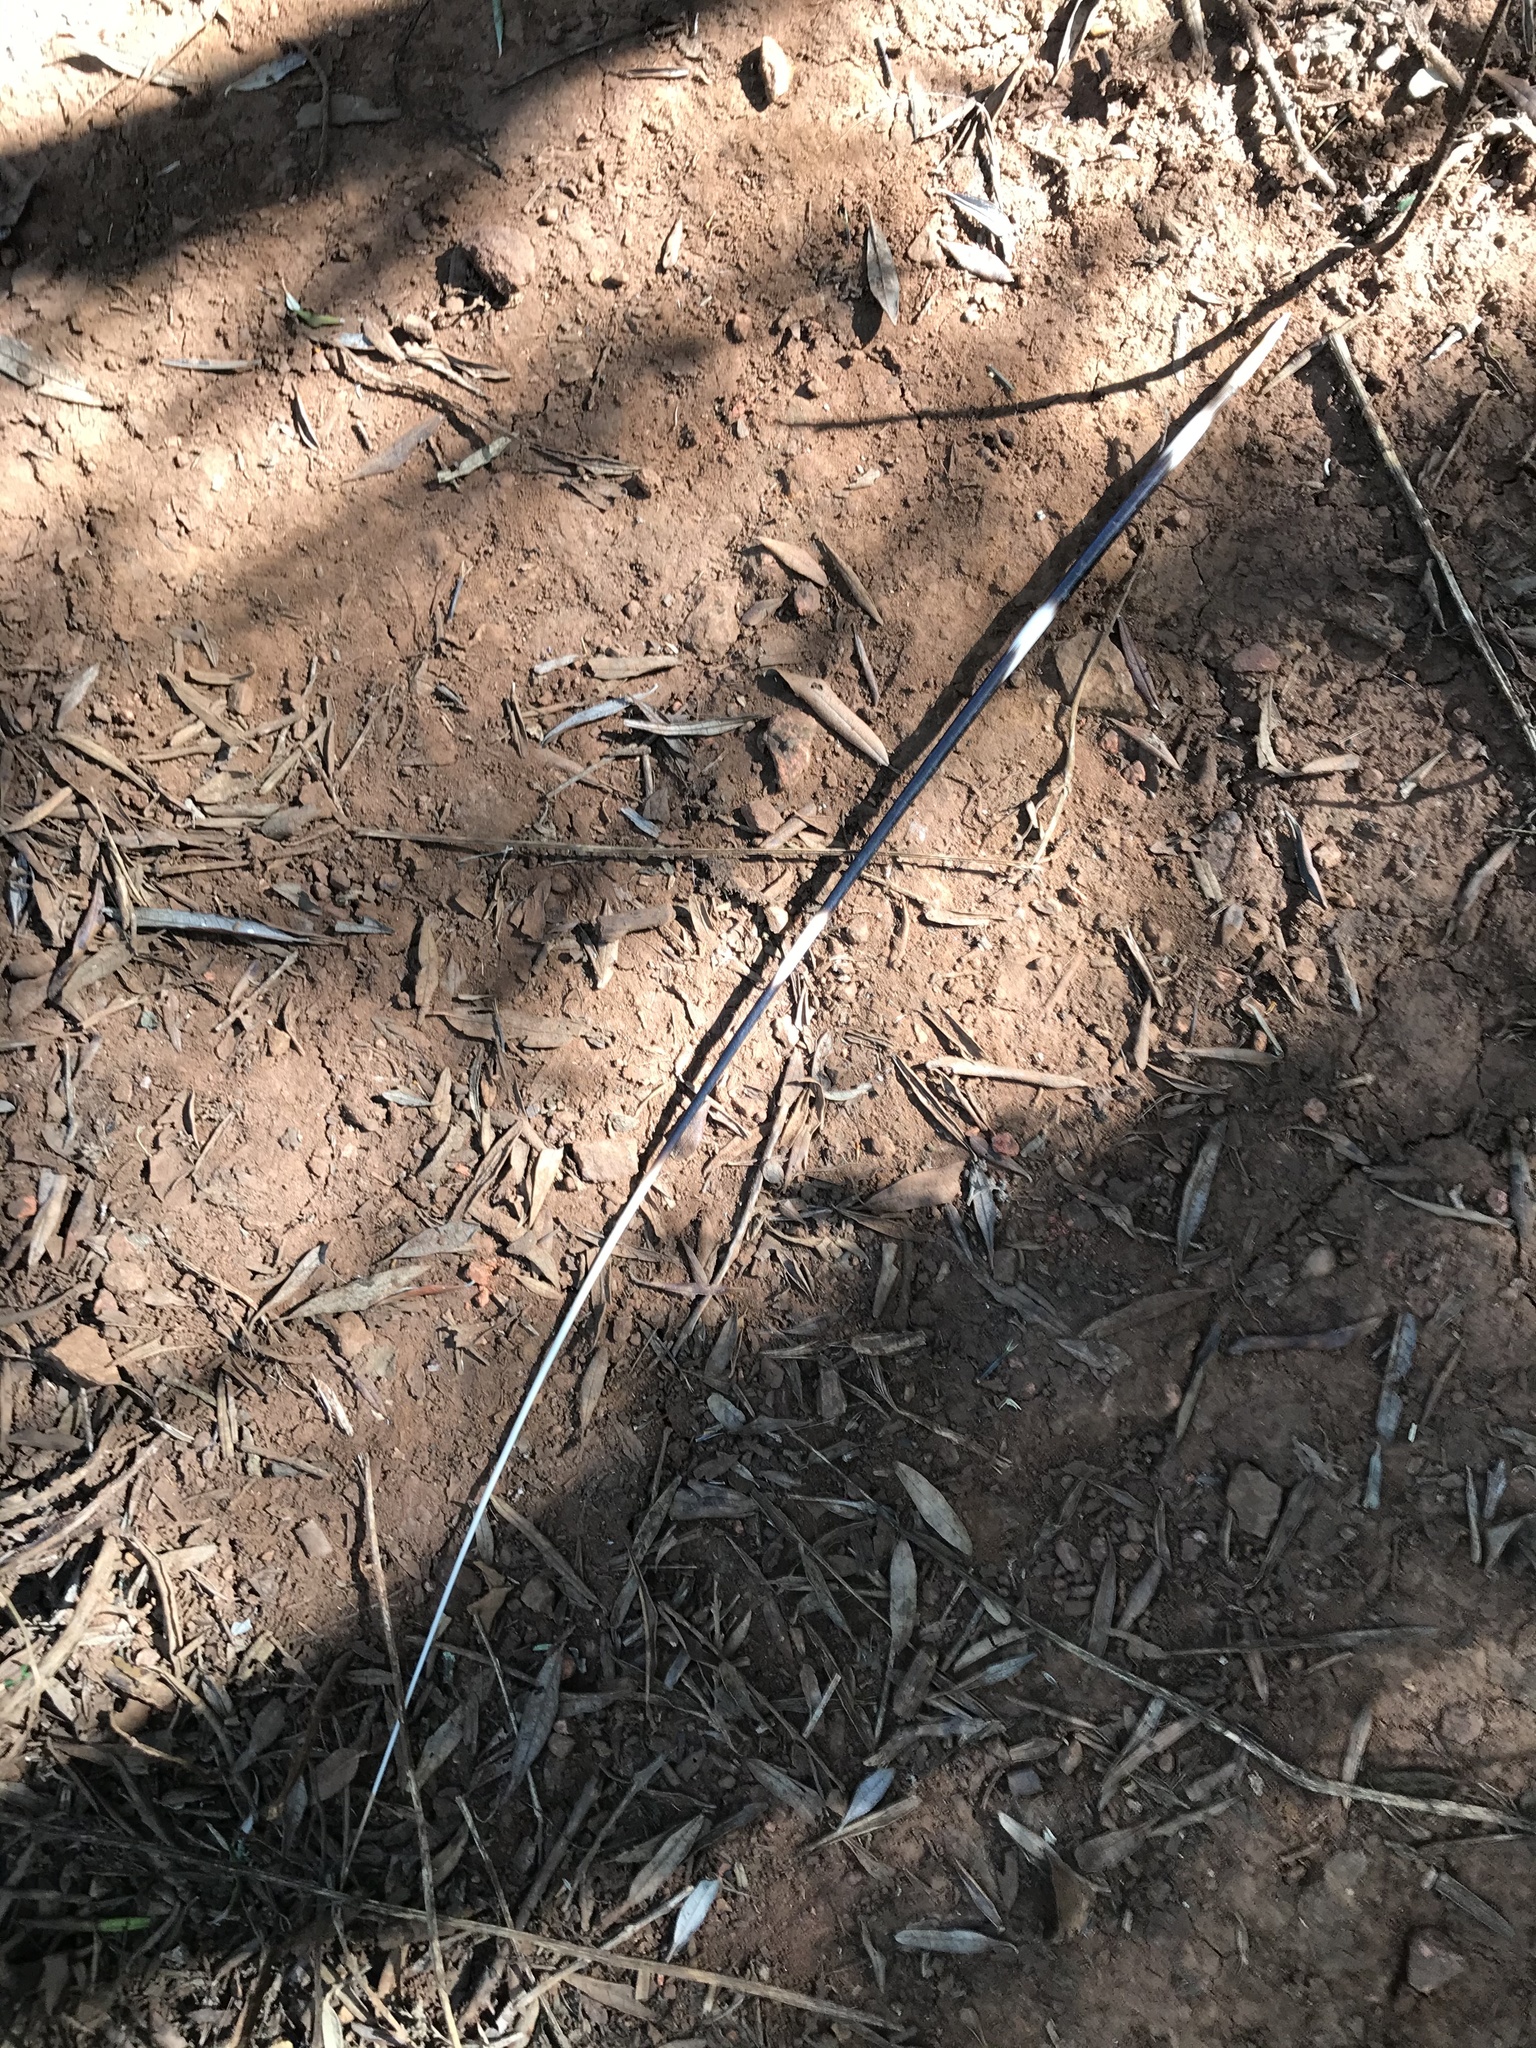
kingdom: Animalia
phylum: Chordata
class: Mammalia
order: Rodentia
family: Hystricidae
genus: Hystrix
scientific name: Hystrix africaeaustralis
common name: Cape porcupine
